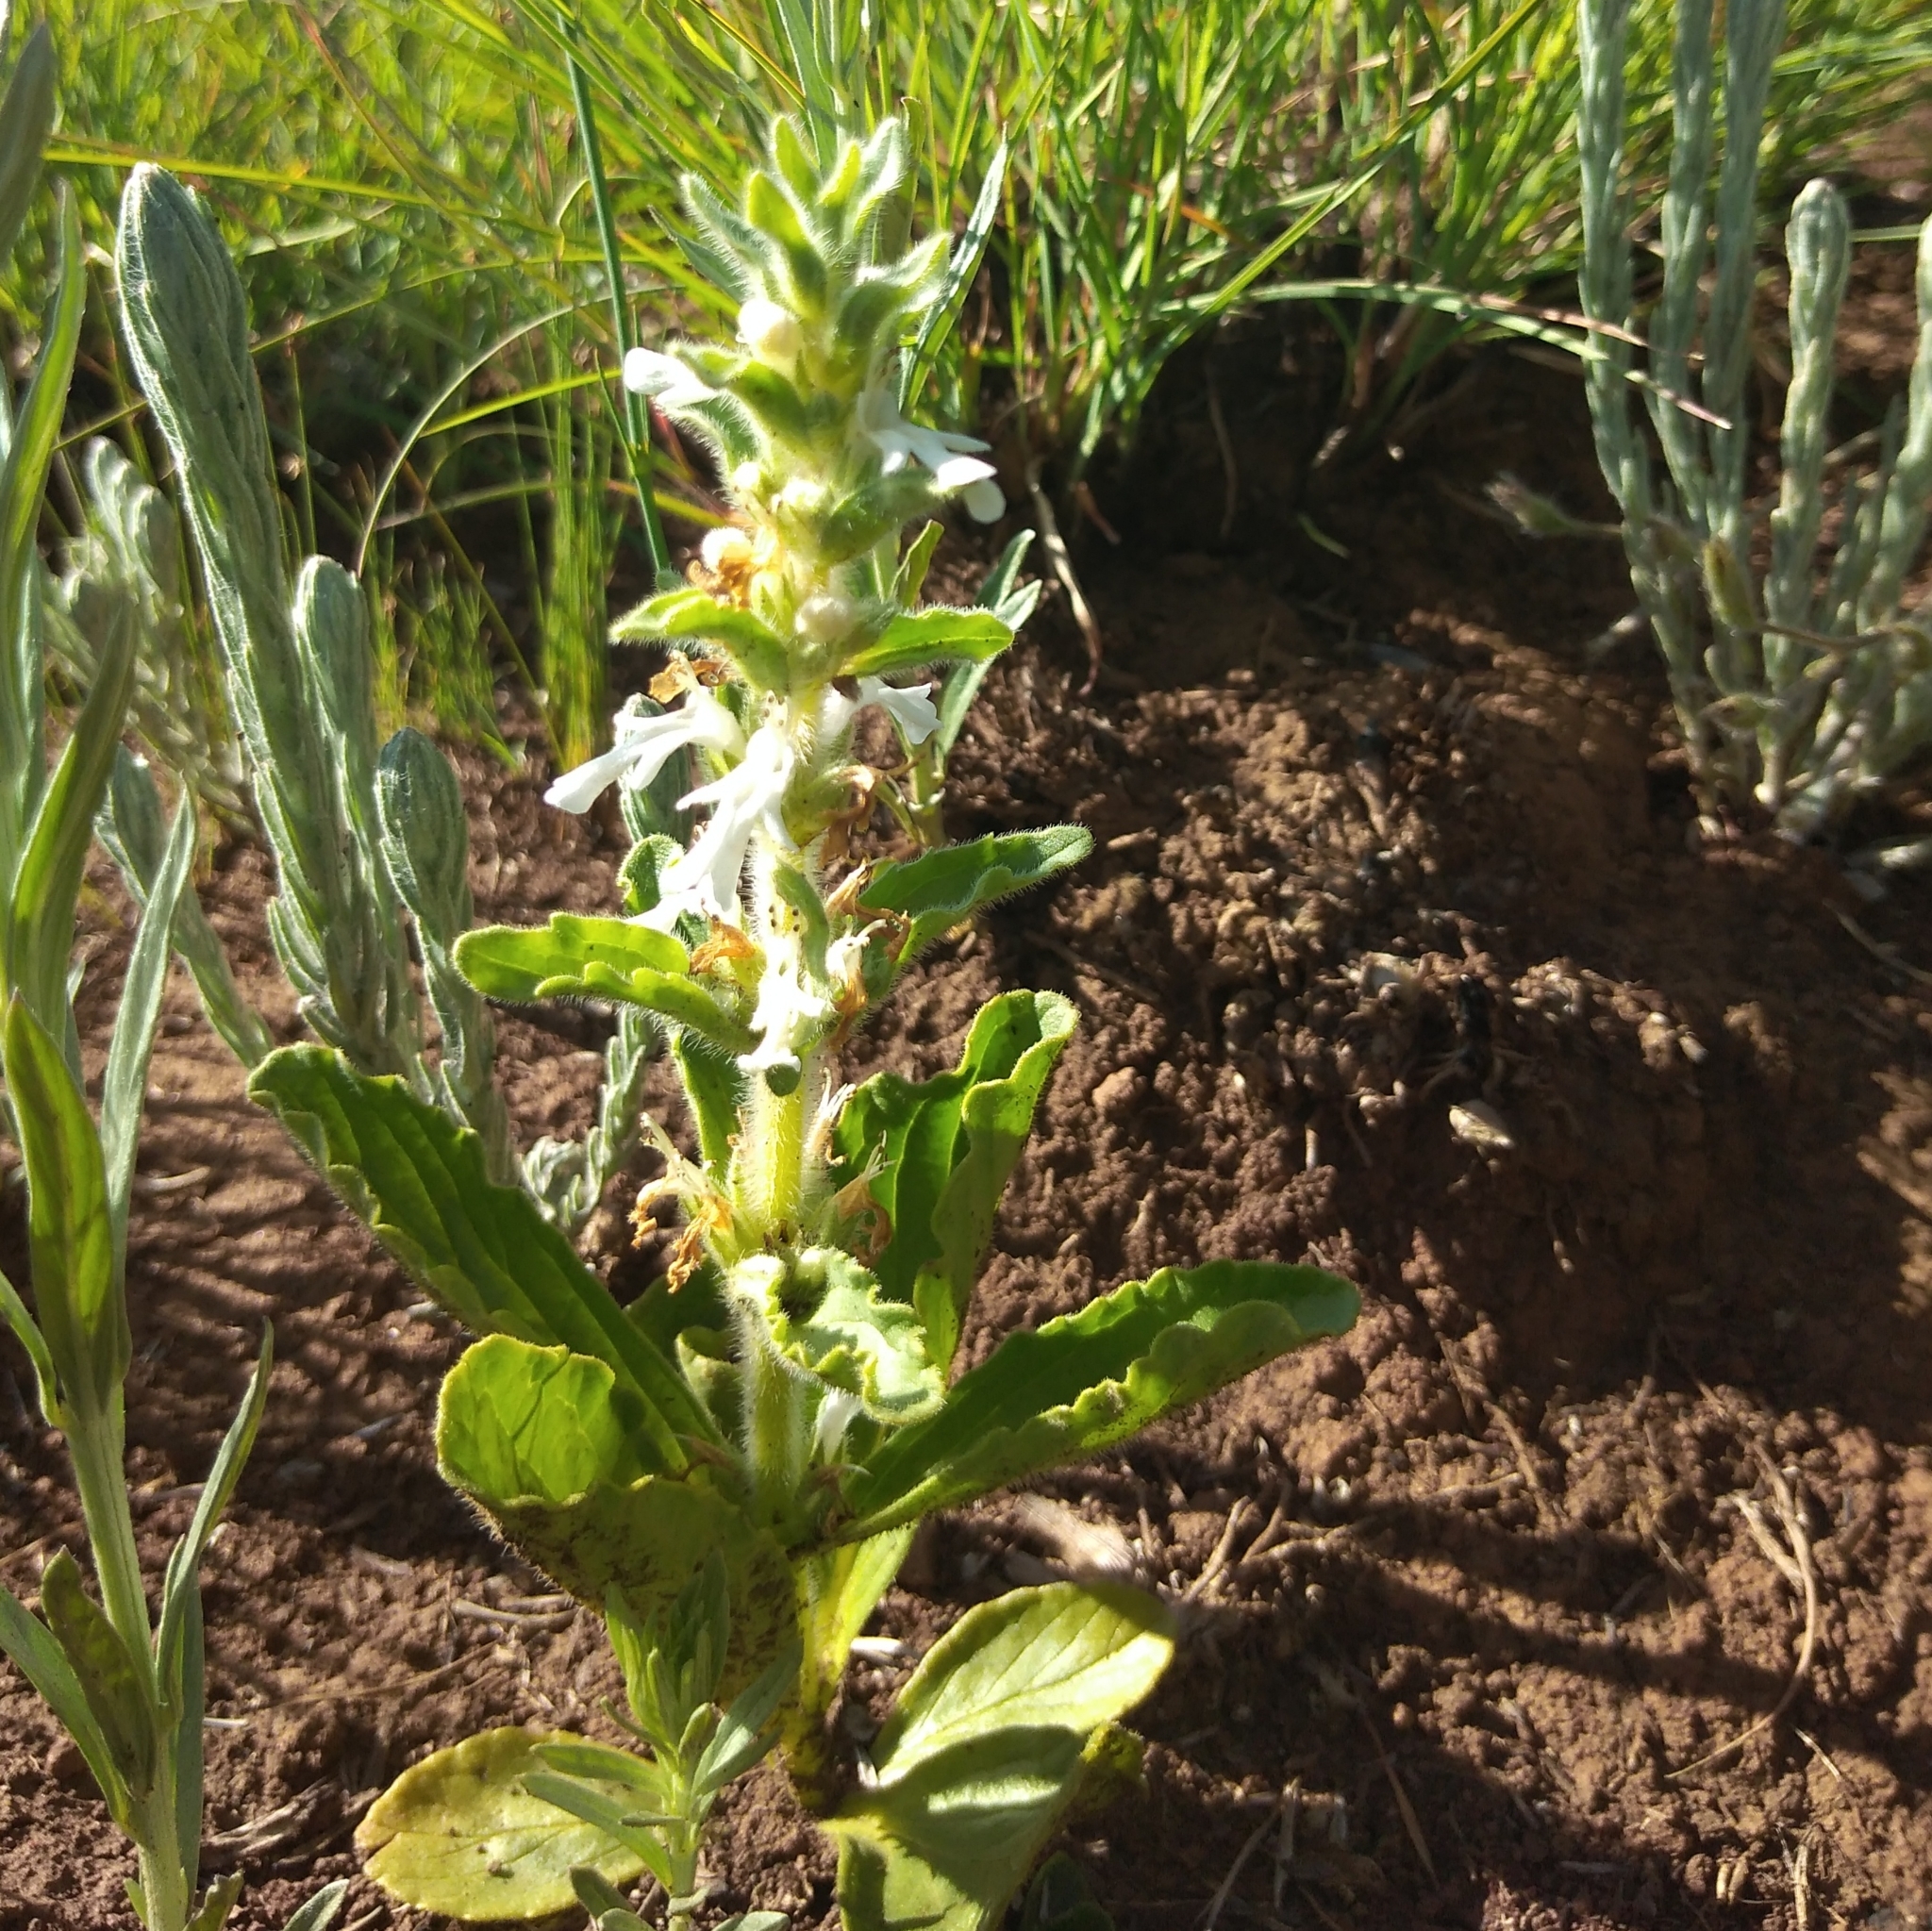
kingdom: Plantae
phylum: Tracheophyta
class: Magnoliopsida
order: Lamiales
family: Lamiaceae
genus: Ajuga
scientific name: Ajuga ophrydis
